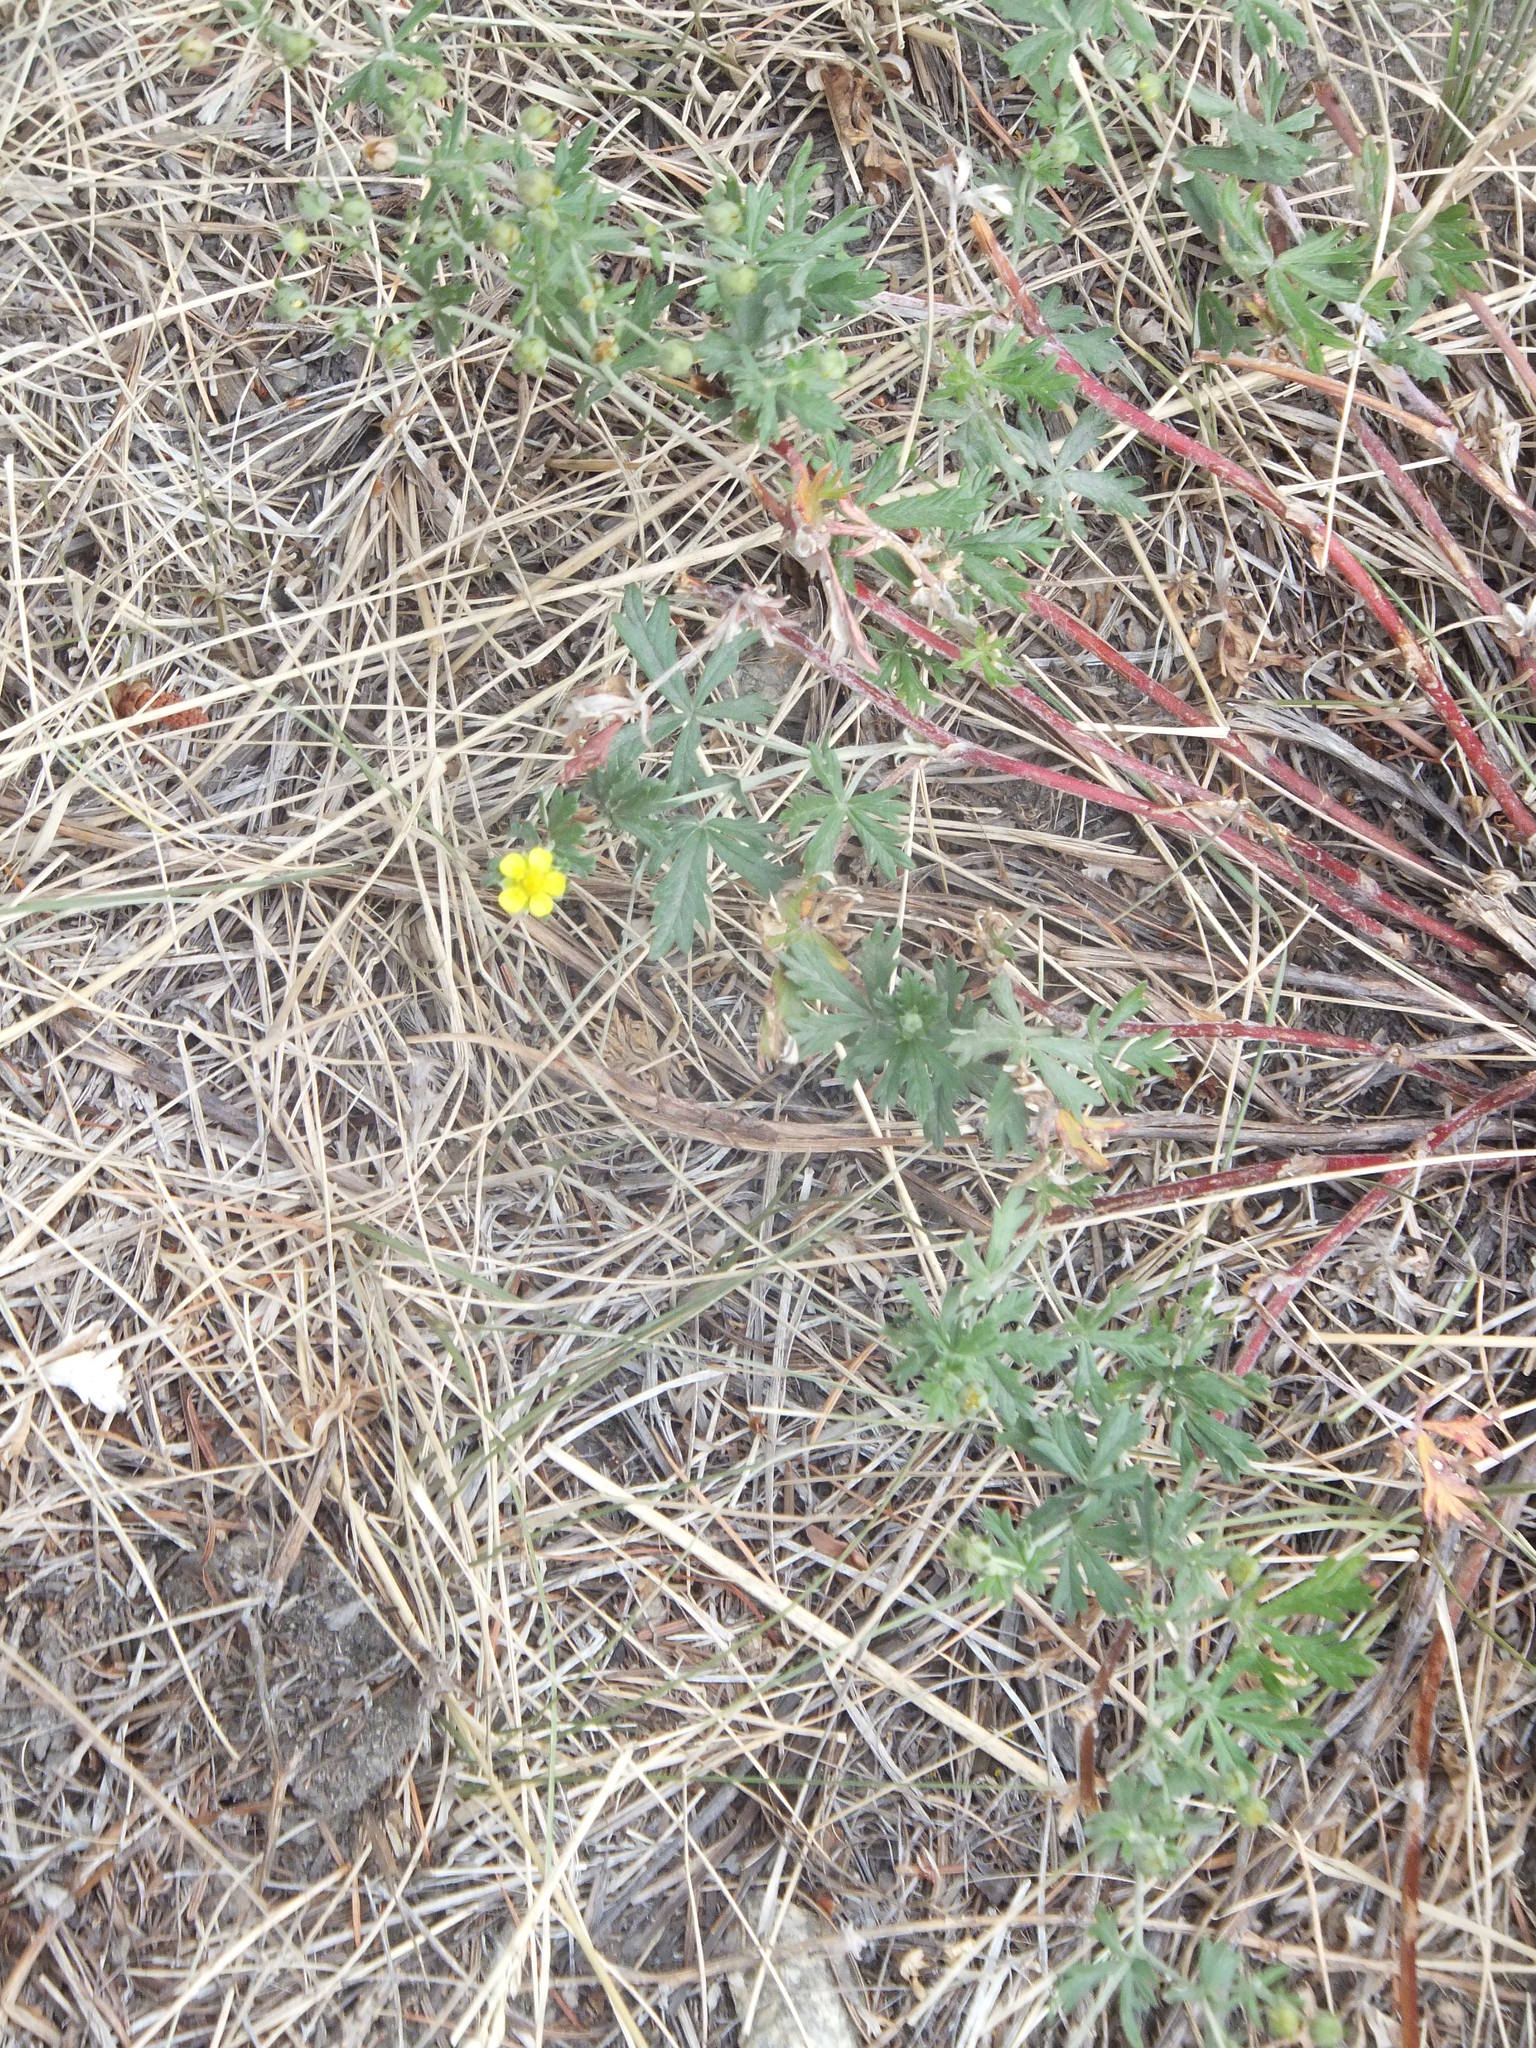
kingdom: Plantae
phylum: Tracheophyta
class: Magnoliopsida
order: Rosales
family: Rosaceae
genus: Potentilla
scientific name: Potentilla argentea
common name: Hoary cinquefoil
